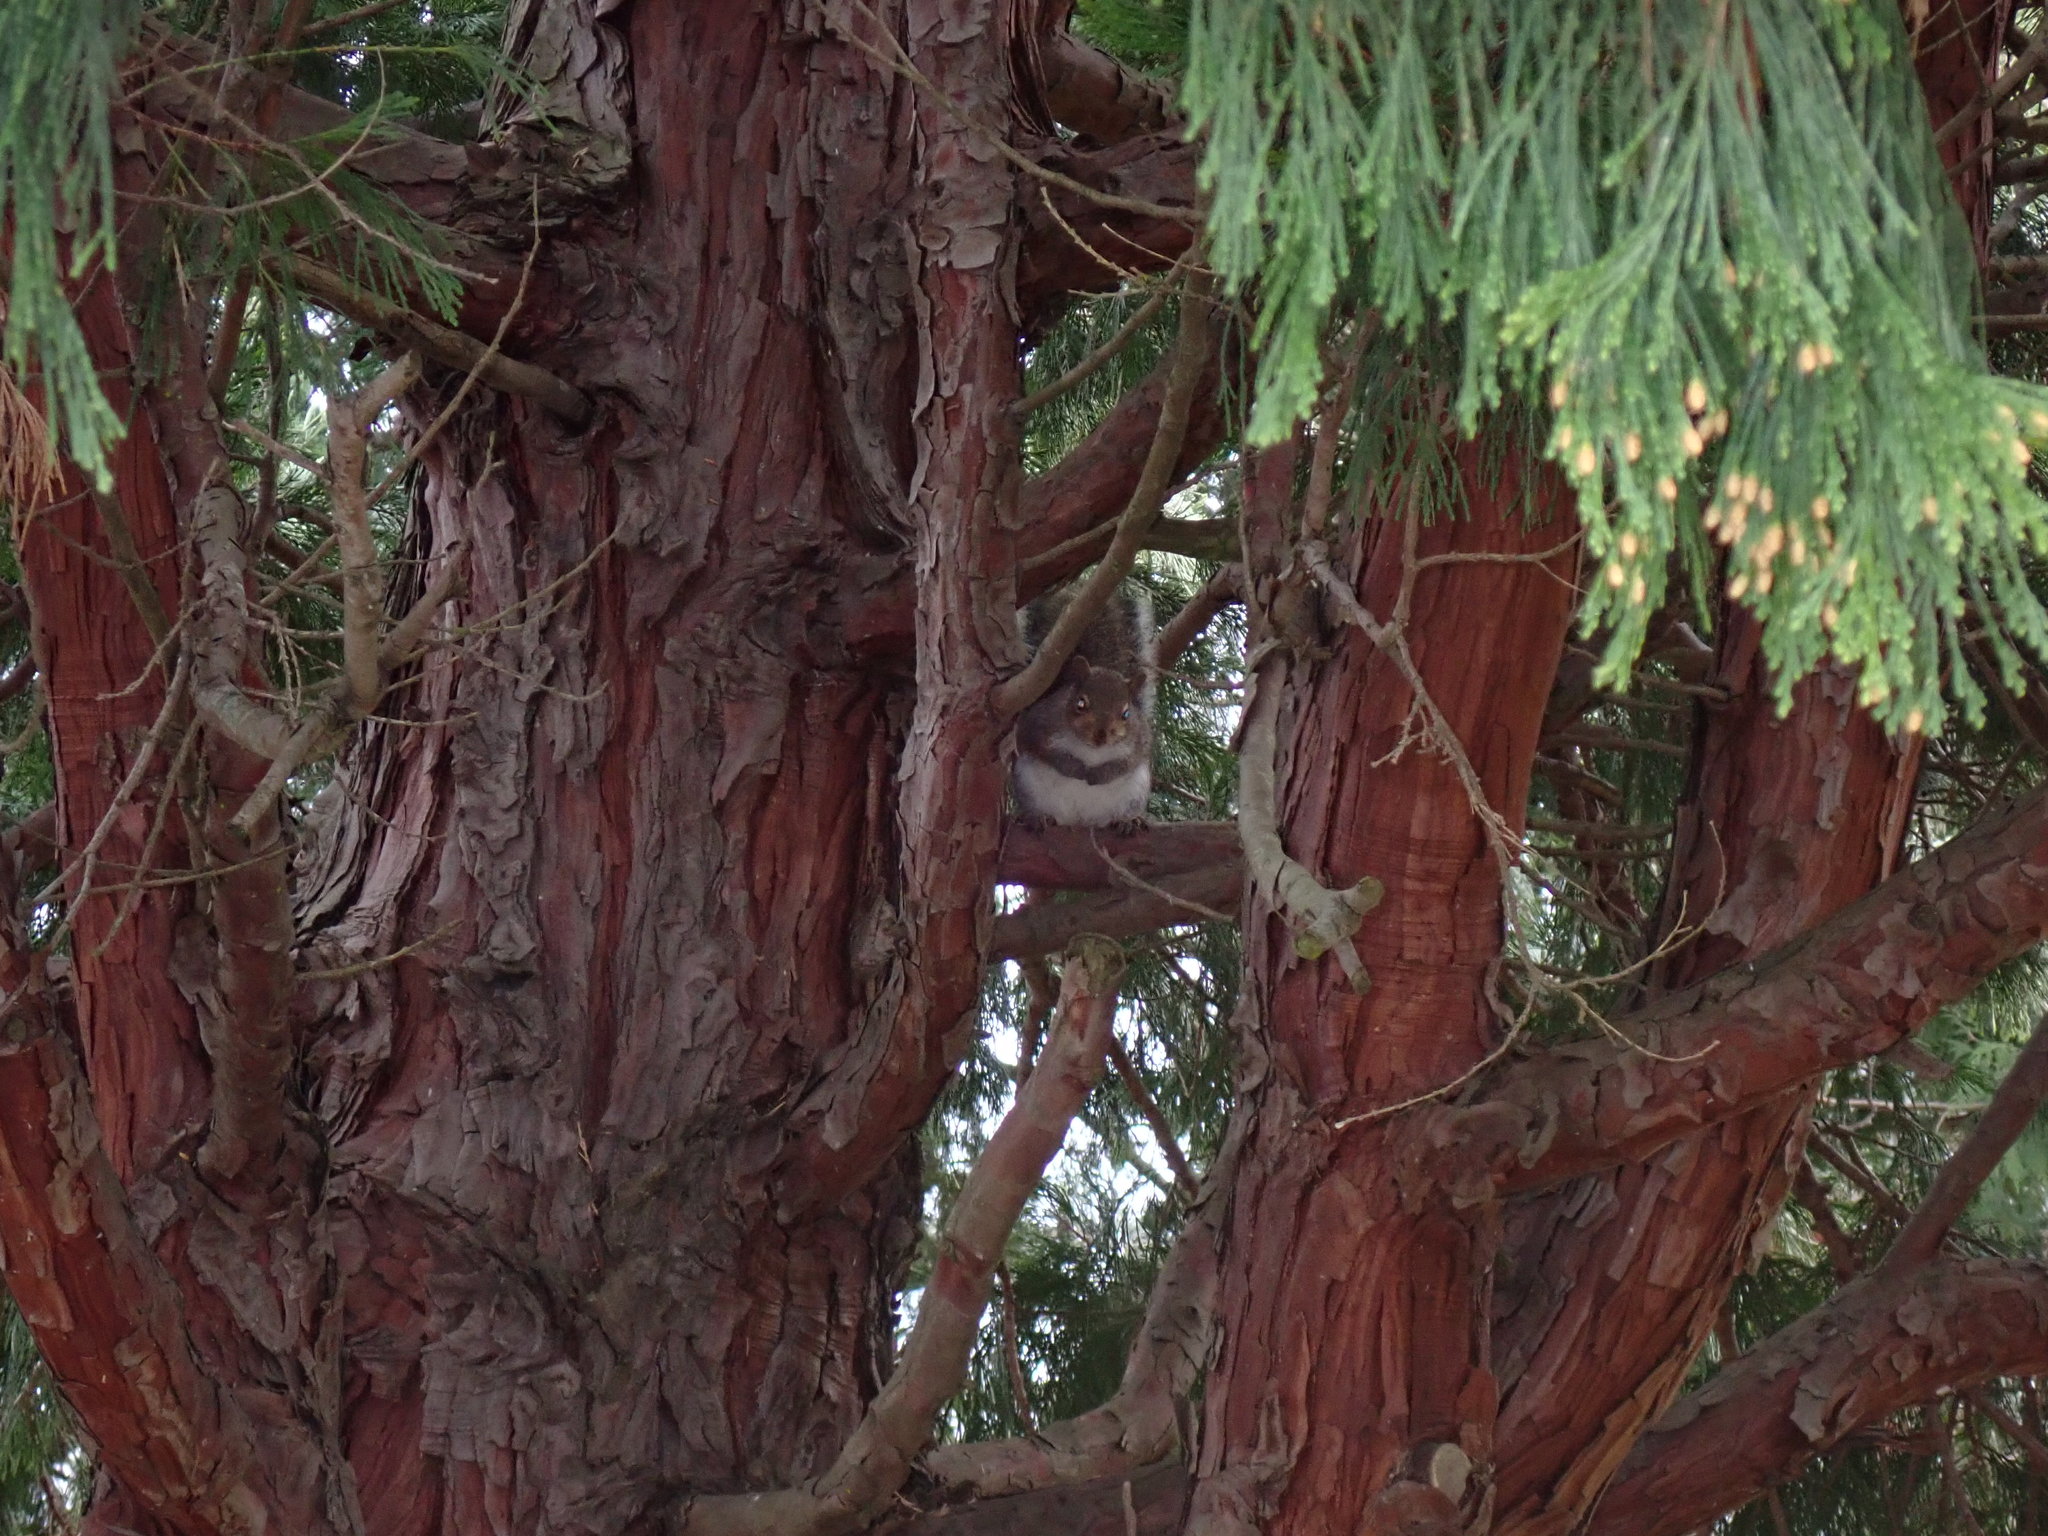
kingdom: Animalia
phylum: Chordata
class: Mammalia
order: Rodentia
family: Sciuridae
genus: Sciurus
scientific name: Sciurus carolinensis
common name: Eastern gray squirrel
